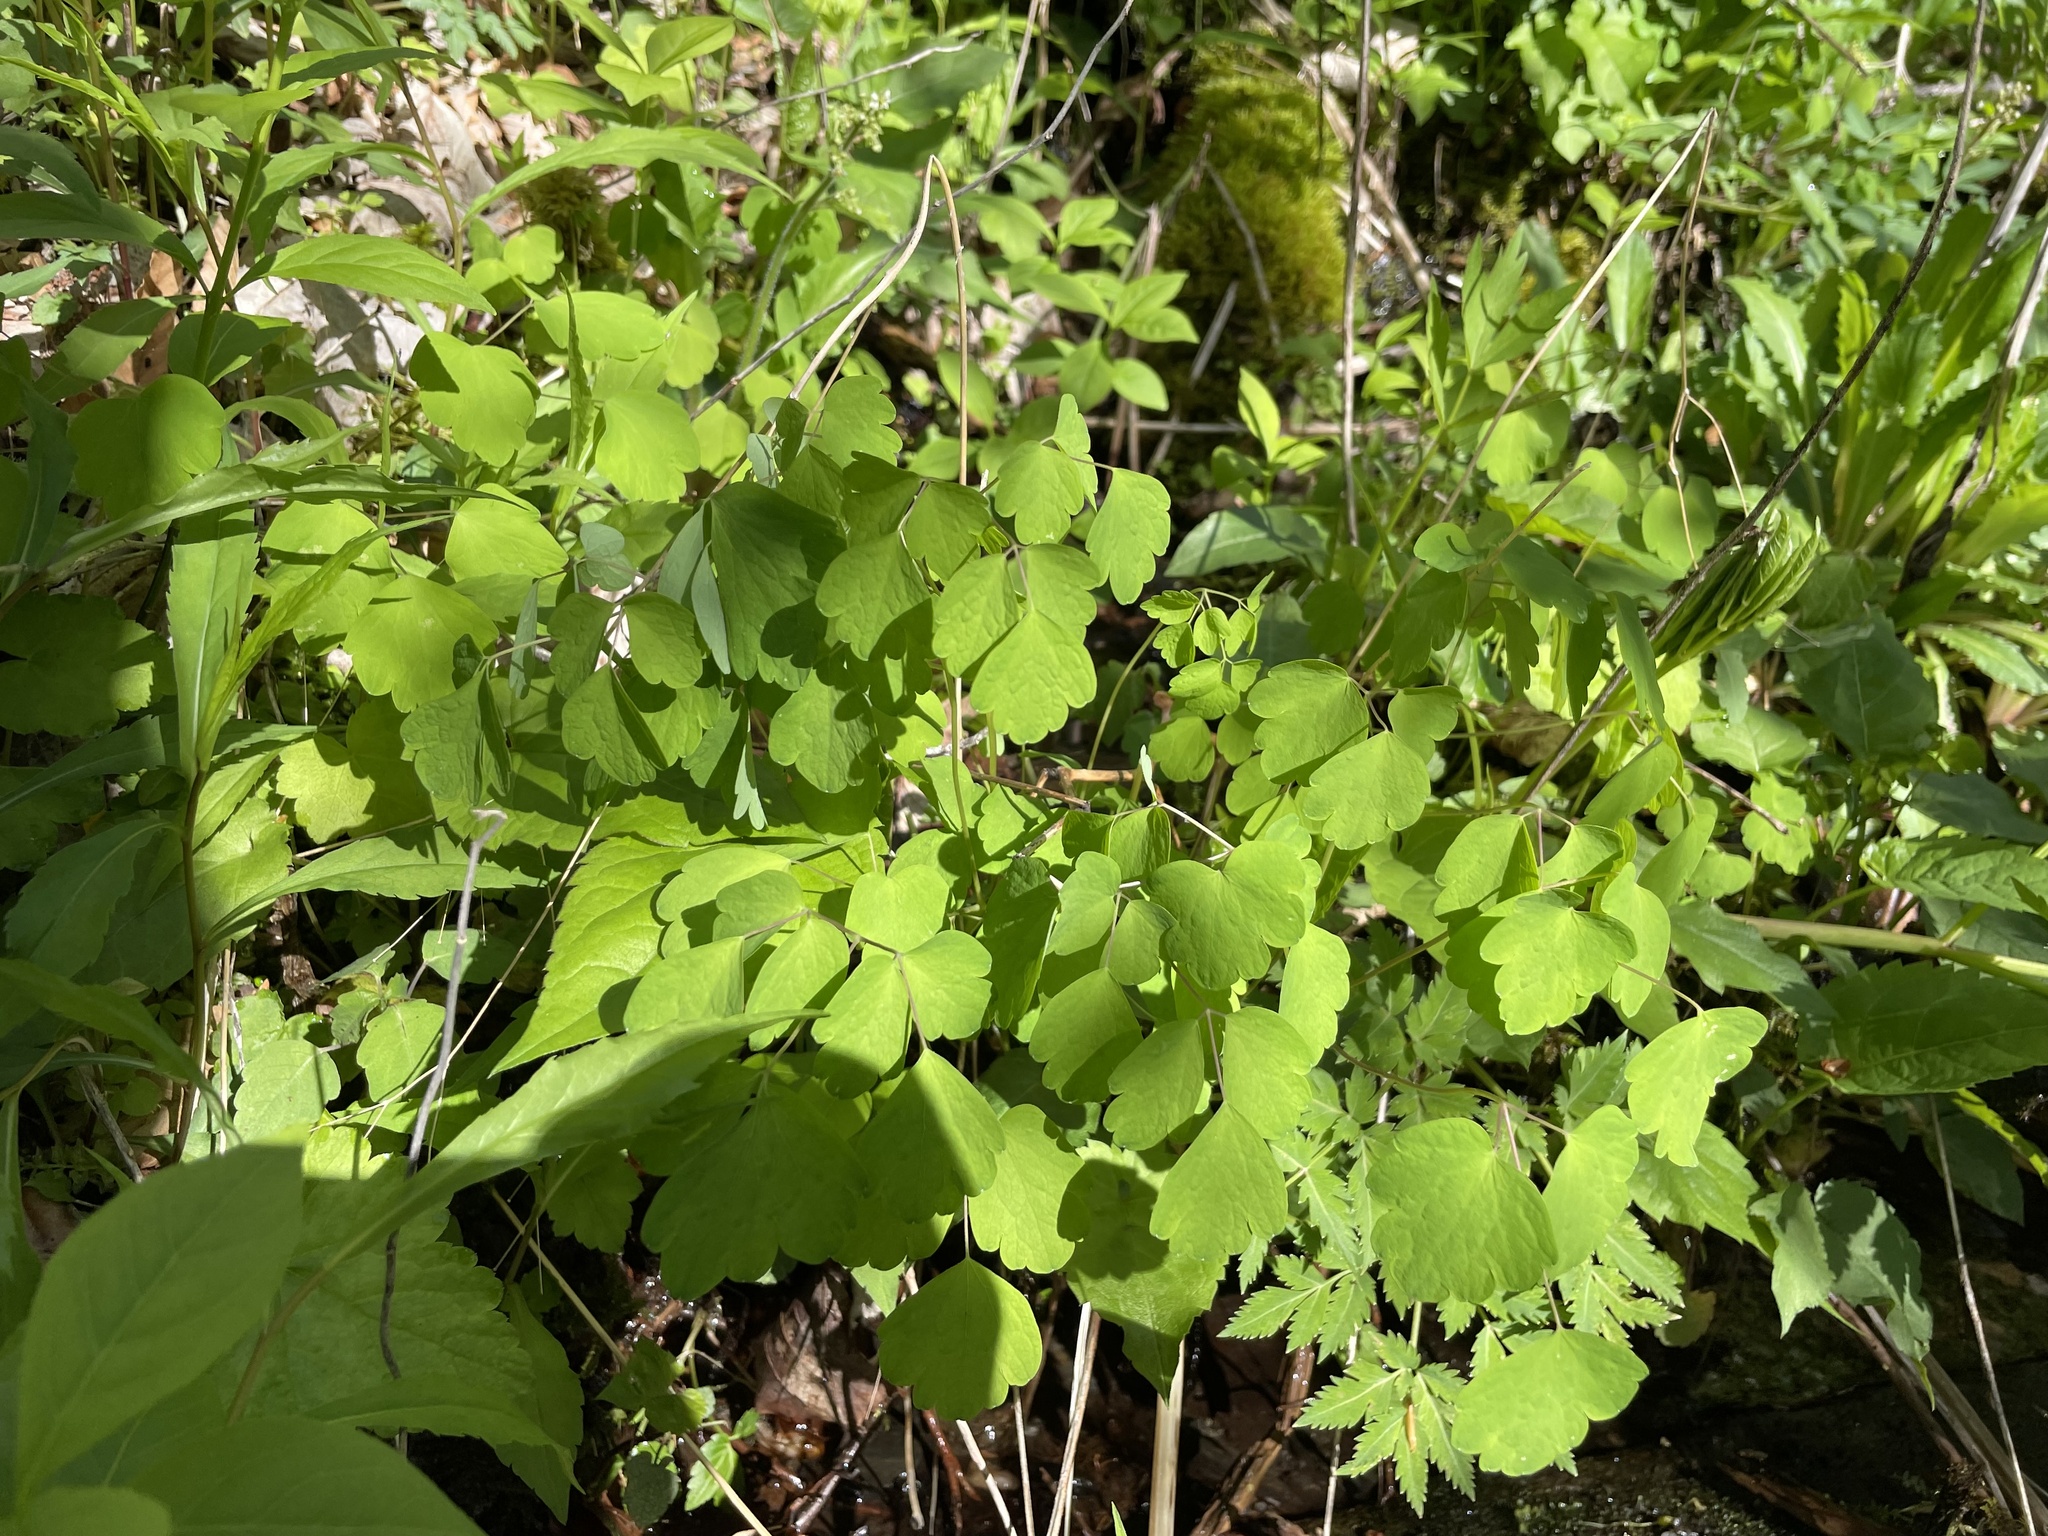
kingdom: Plantae
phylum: Tracheophyta
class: Magnoliopsida
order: Ranunculales
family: Ranunculaceae
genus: Thalictrum
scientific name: Thalictrum clavatum
